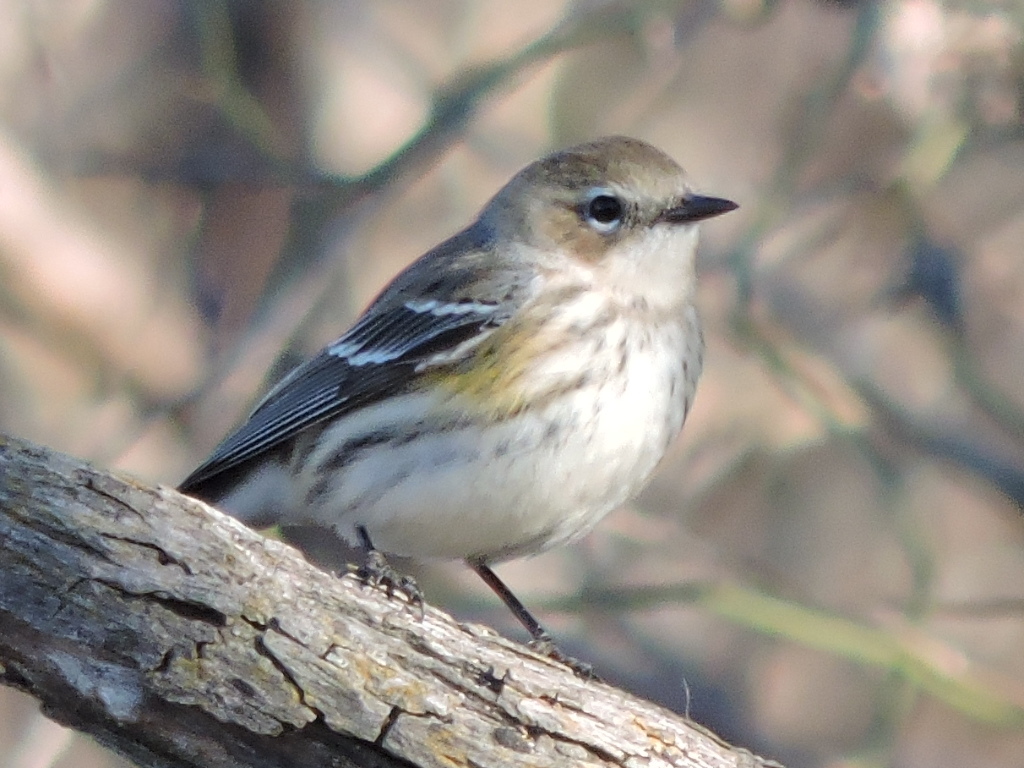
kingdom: Animalia
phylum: Chordata
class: Aves
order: Passeriformes
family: Parulidae
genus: Setophaga
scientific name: Setophaga coronata
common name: Myrtle warbler
